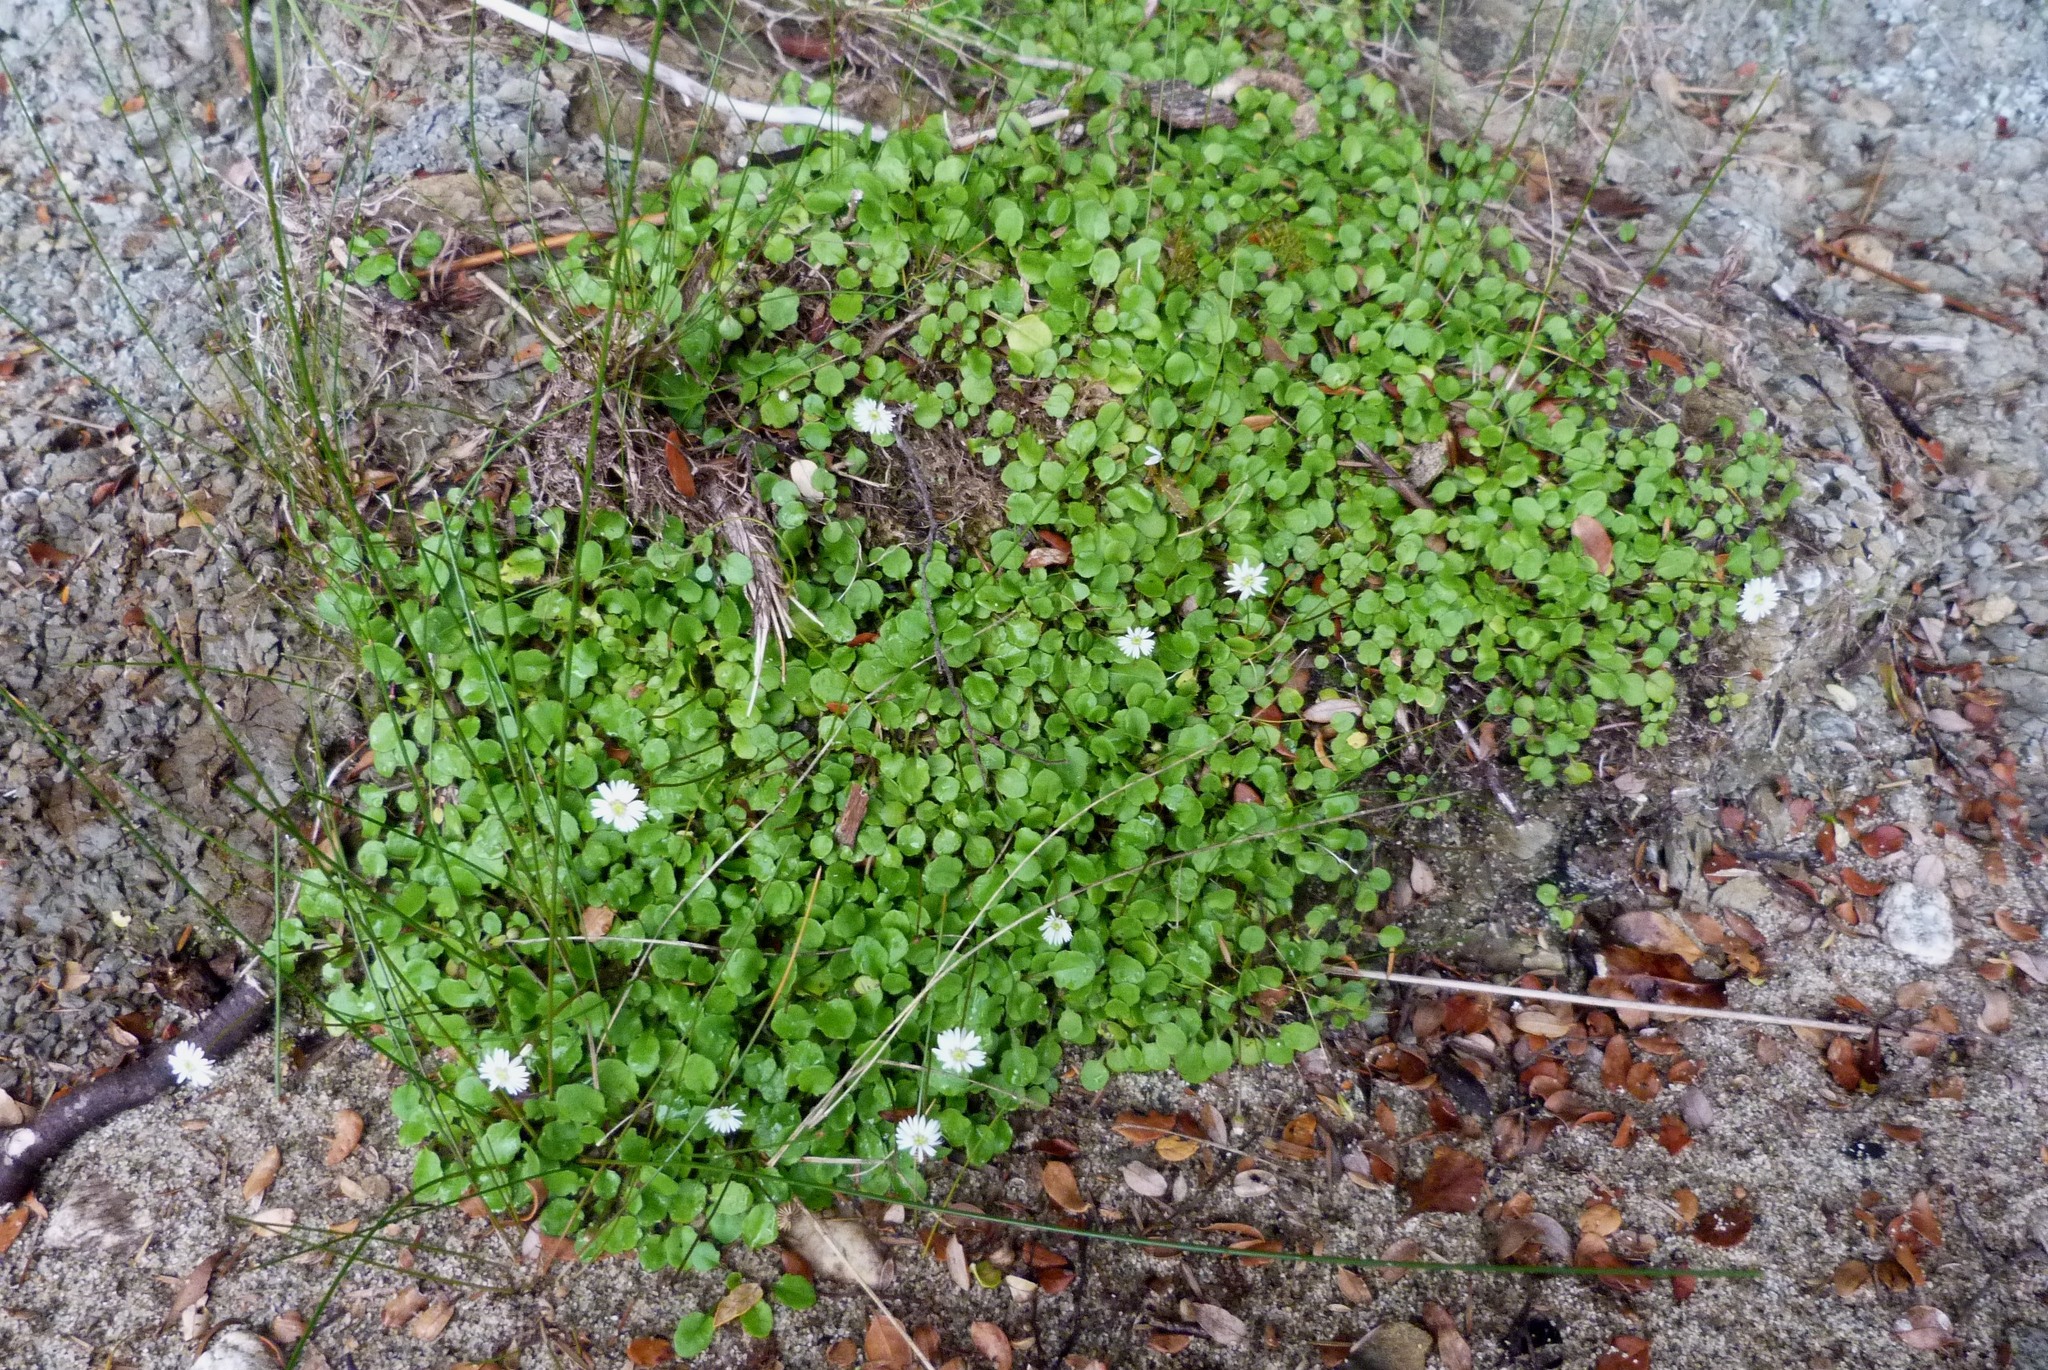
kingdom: Plantae
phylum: Tracheophyta
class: Magnoliopsida
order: Asterales
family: Asteraceae
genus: Lagenophora
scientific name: Lagenophora strangulata
